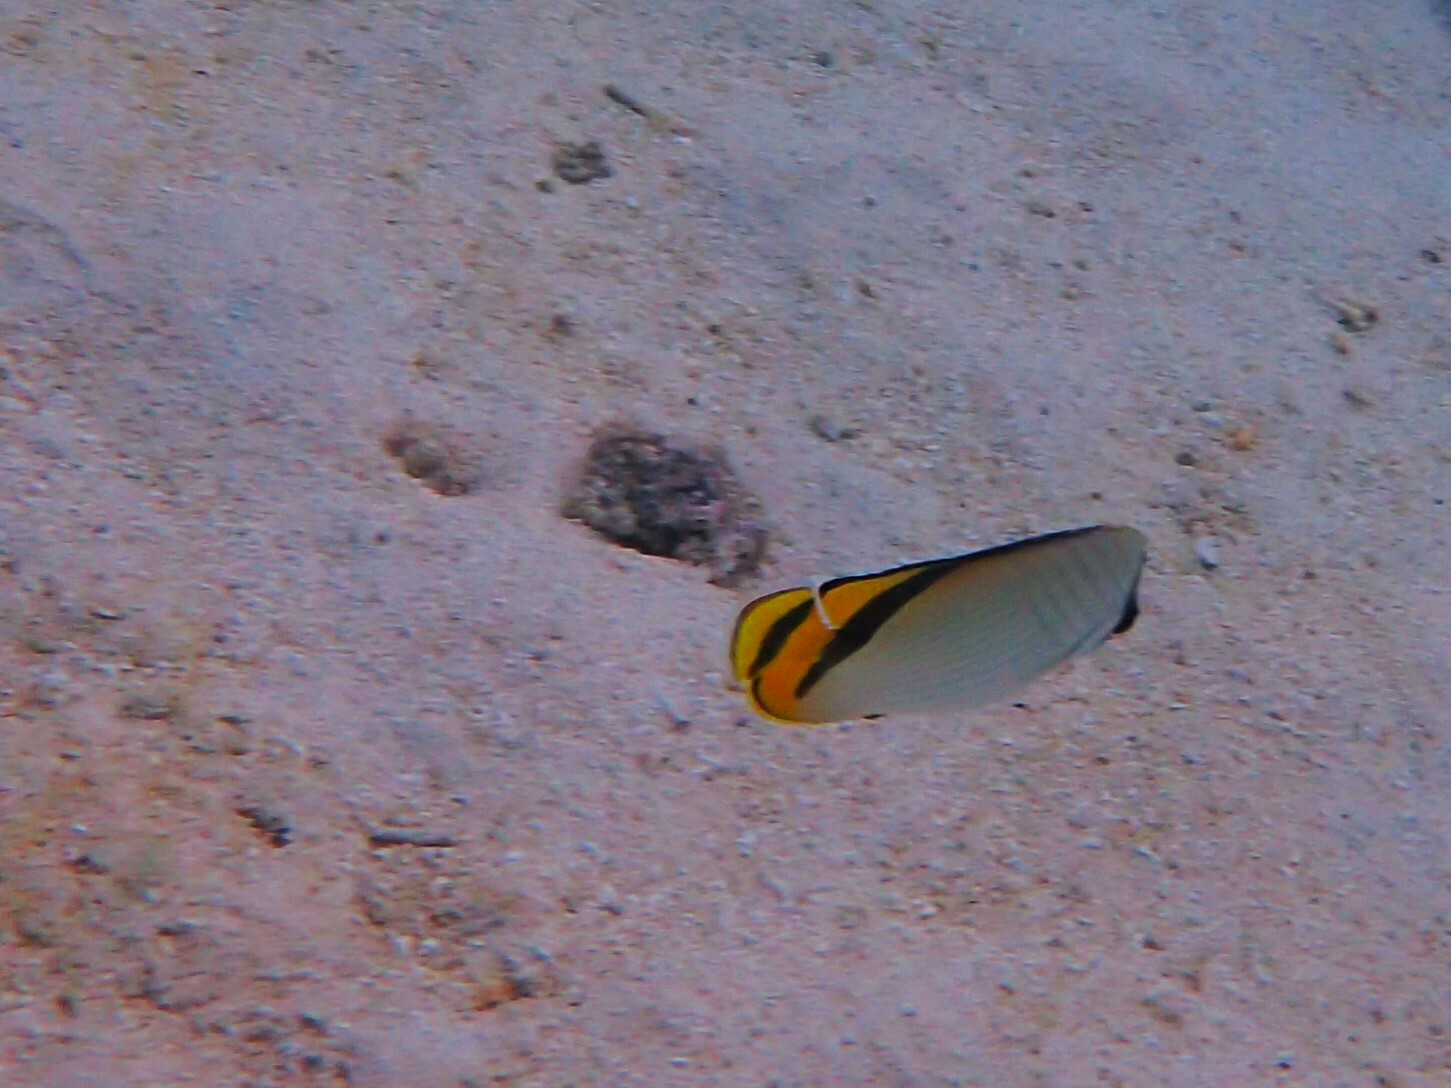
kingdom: Animalia
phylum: Chordata
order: Perciformes
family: Chaetodontidae
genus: Chaetodon
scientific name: Chaetodon vagabundus
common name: Vagabond butterflyfish
